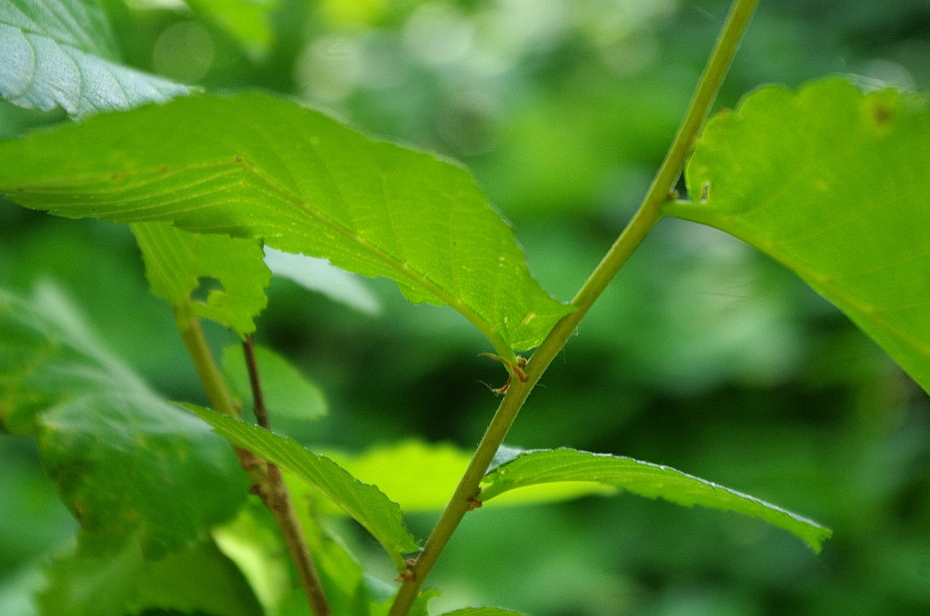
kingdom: Plantae
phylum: Tracheophyta
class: Magnoliopsida
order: Rosales
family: Ulmaceae
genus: Ulmus
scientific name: Ulmus laevis
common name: European white-elm
